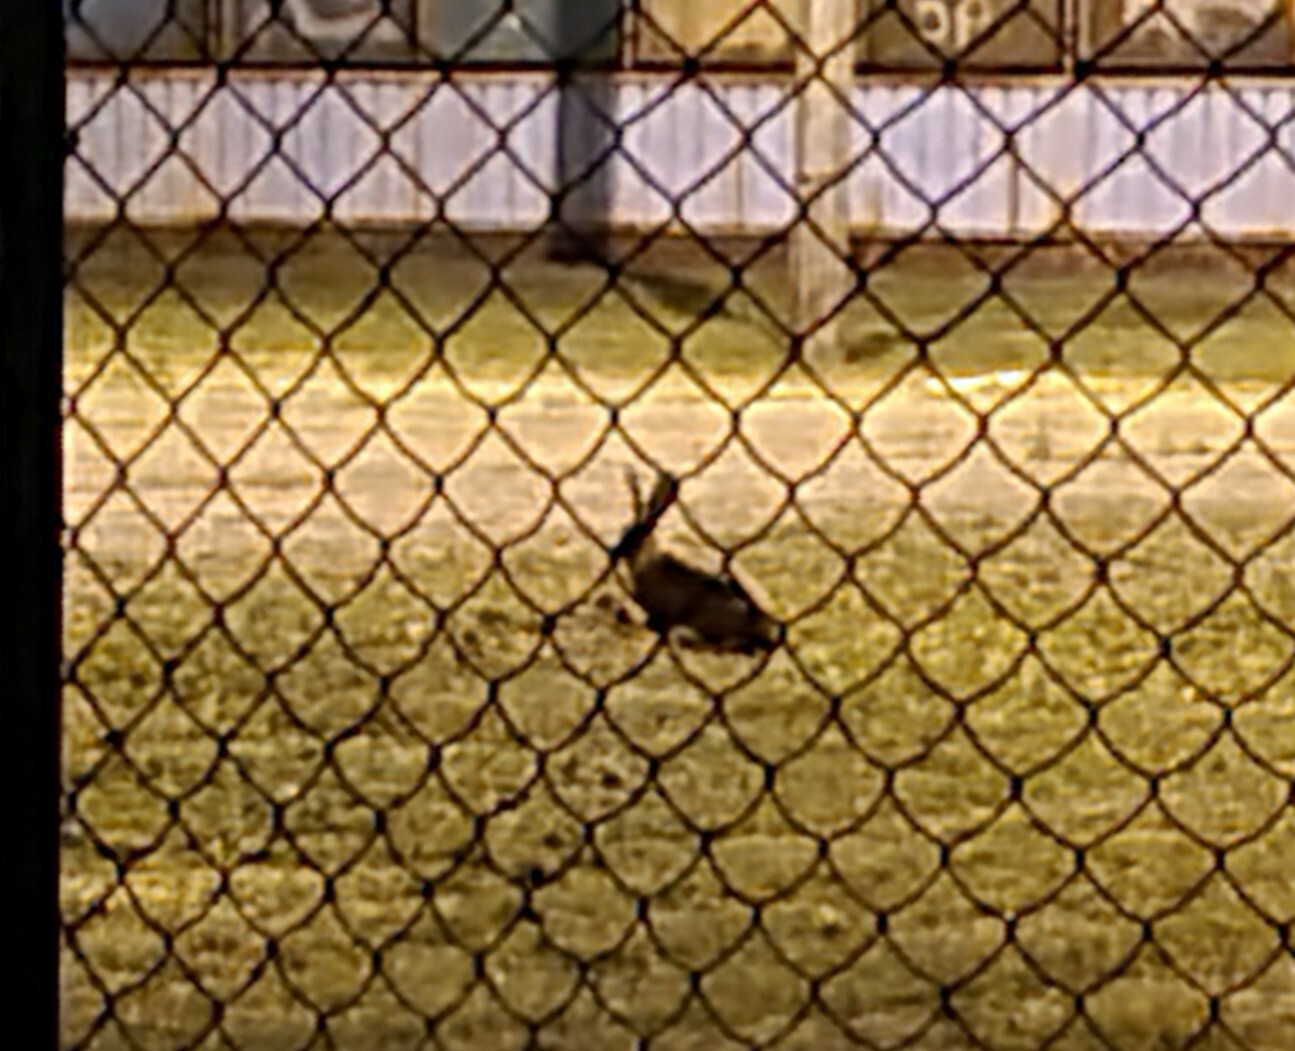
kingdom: Animalia
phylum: Chordata
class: Mammalia
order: Lagomorpha
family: Leporidae
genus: Lepus
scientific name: Lepus europaeus
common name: European hare
